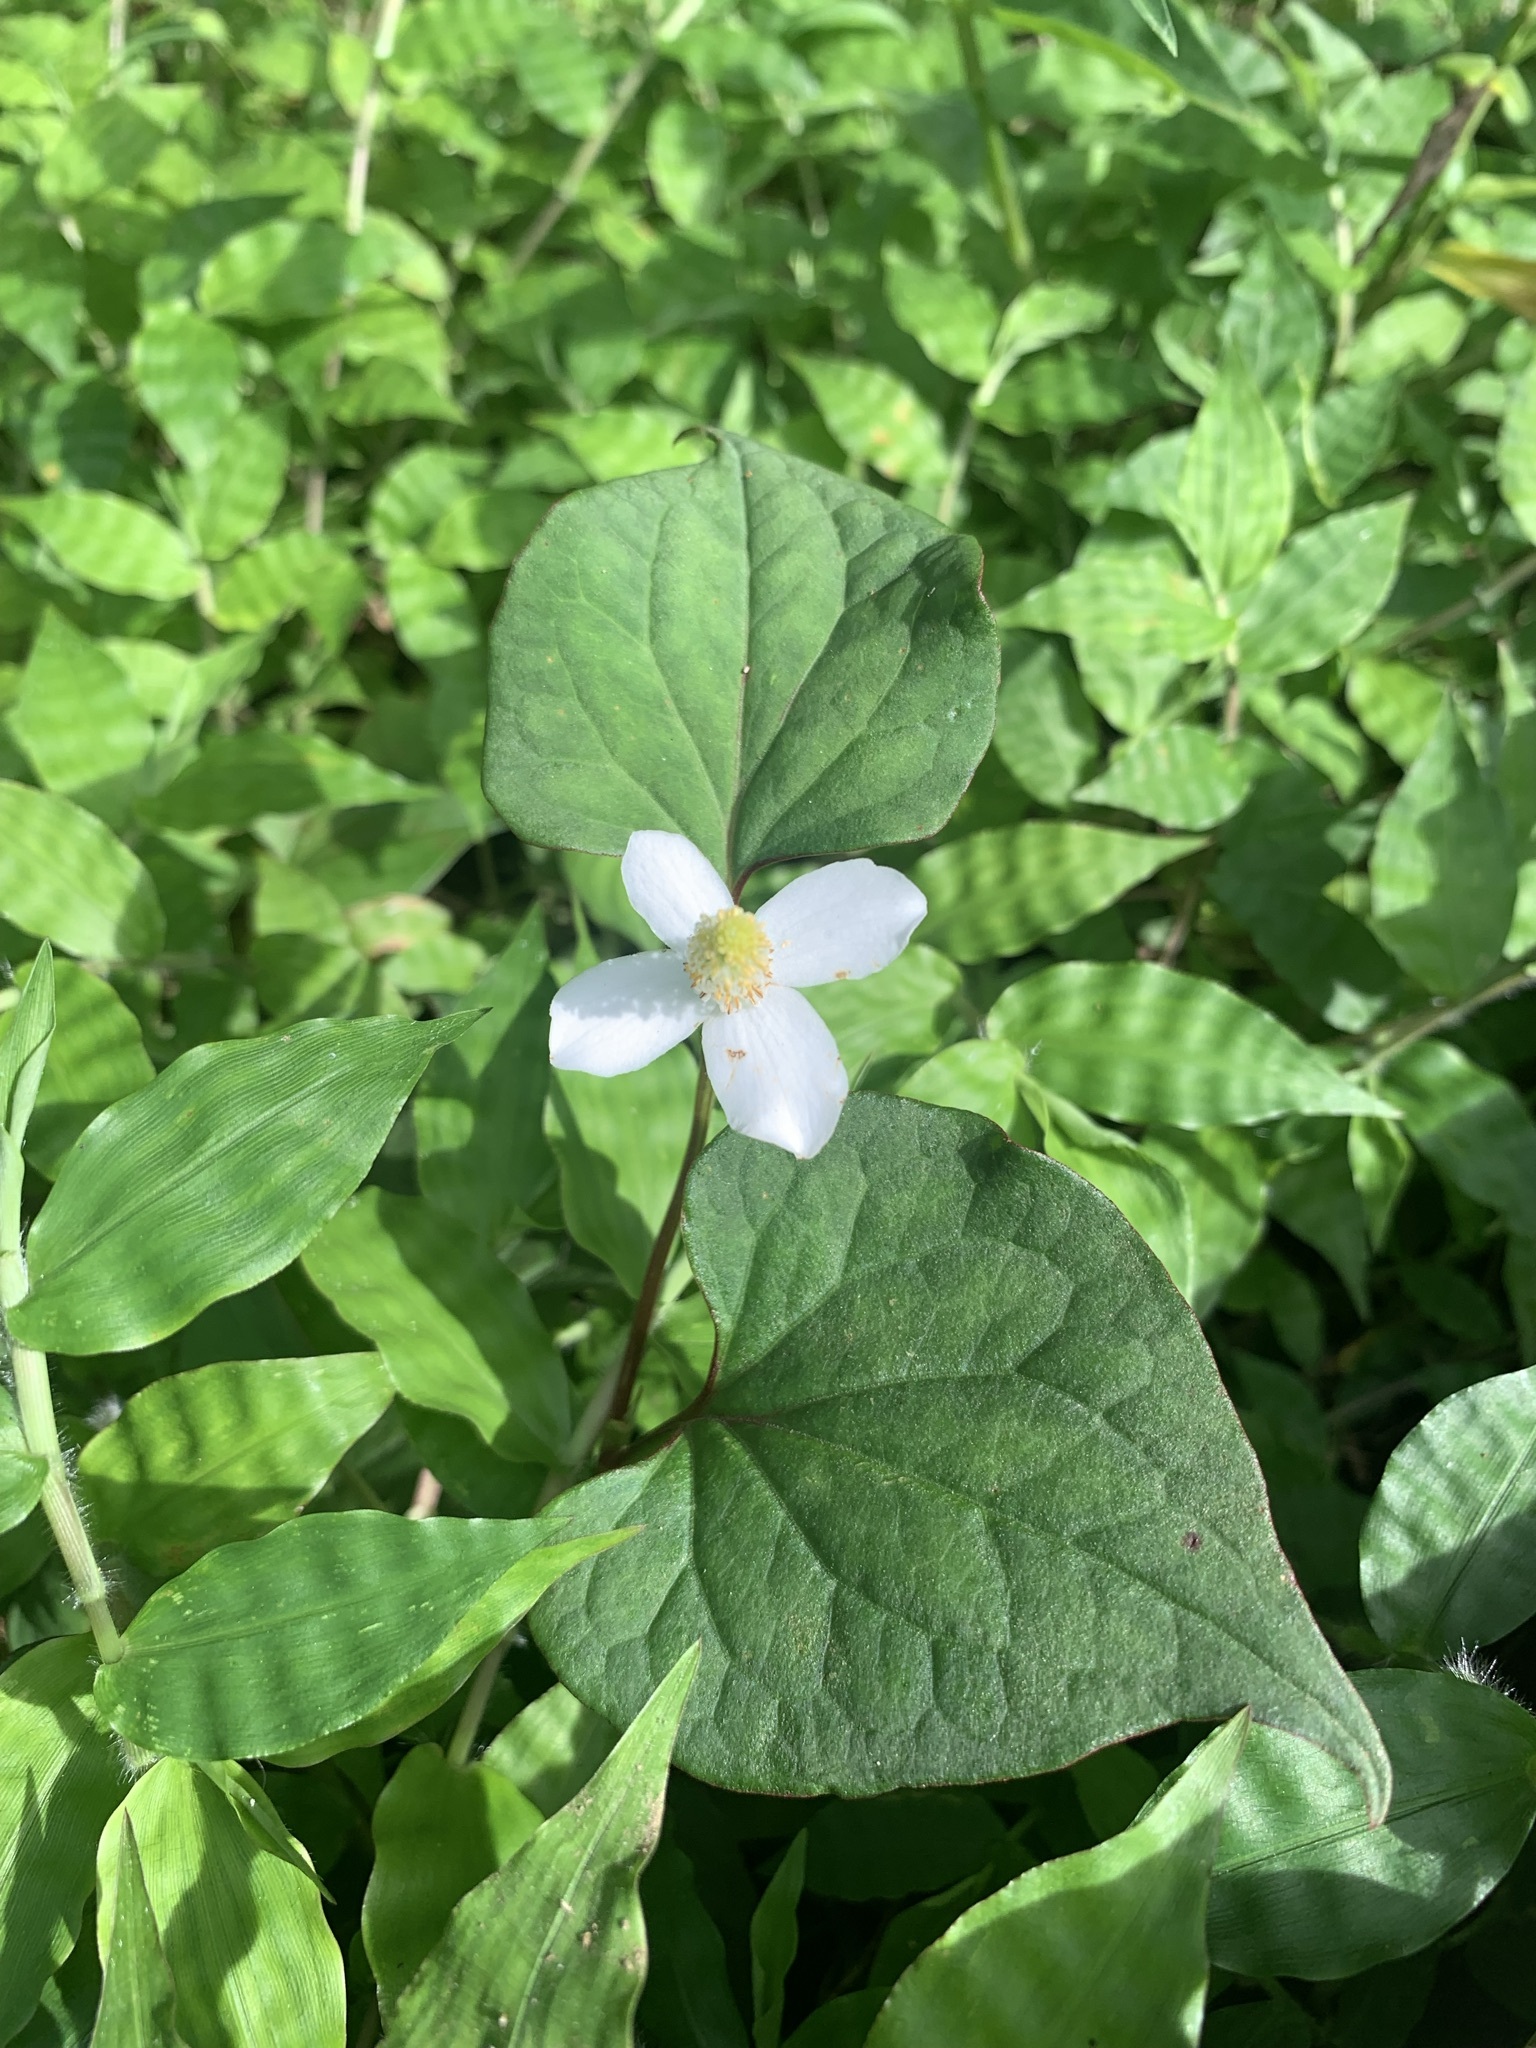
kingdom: Plantae
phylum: Tracheophyta
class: Magnoliopsida
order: Piperales
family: Saururaceae
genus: Houttuynia
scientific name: Houttuynia cordata
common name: Chameleon
